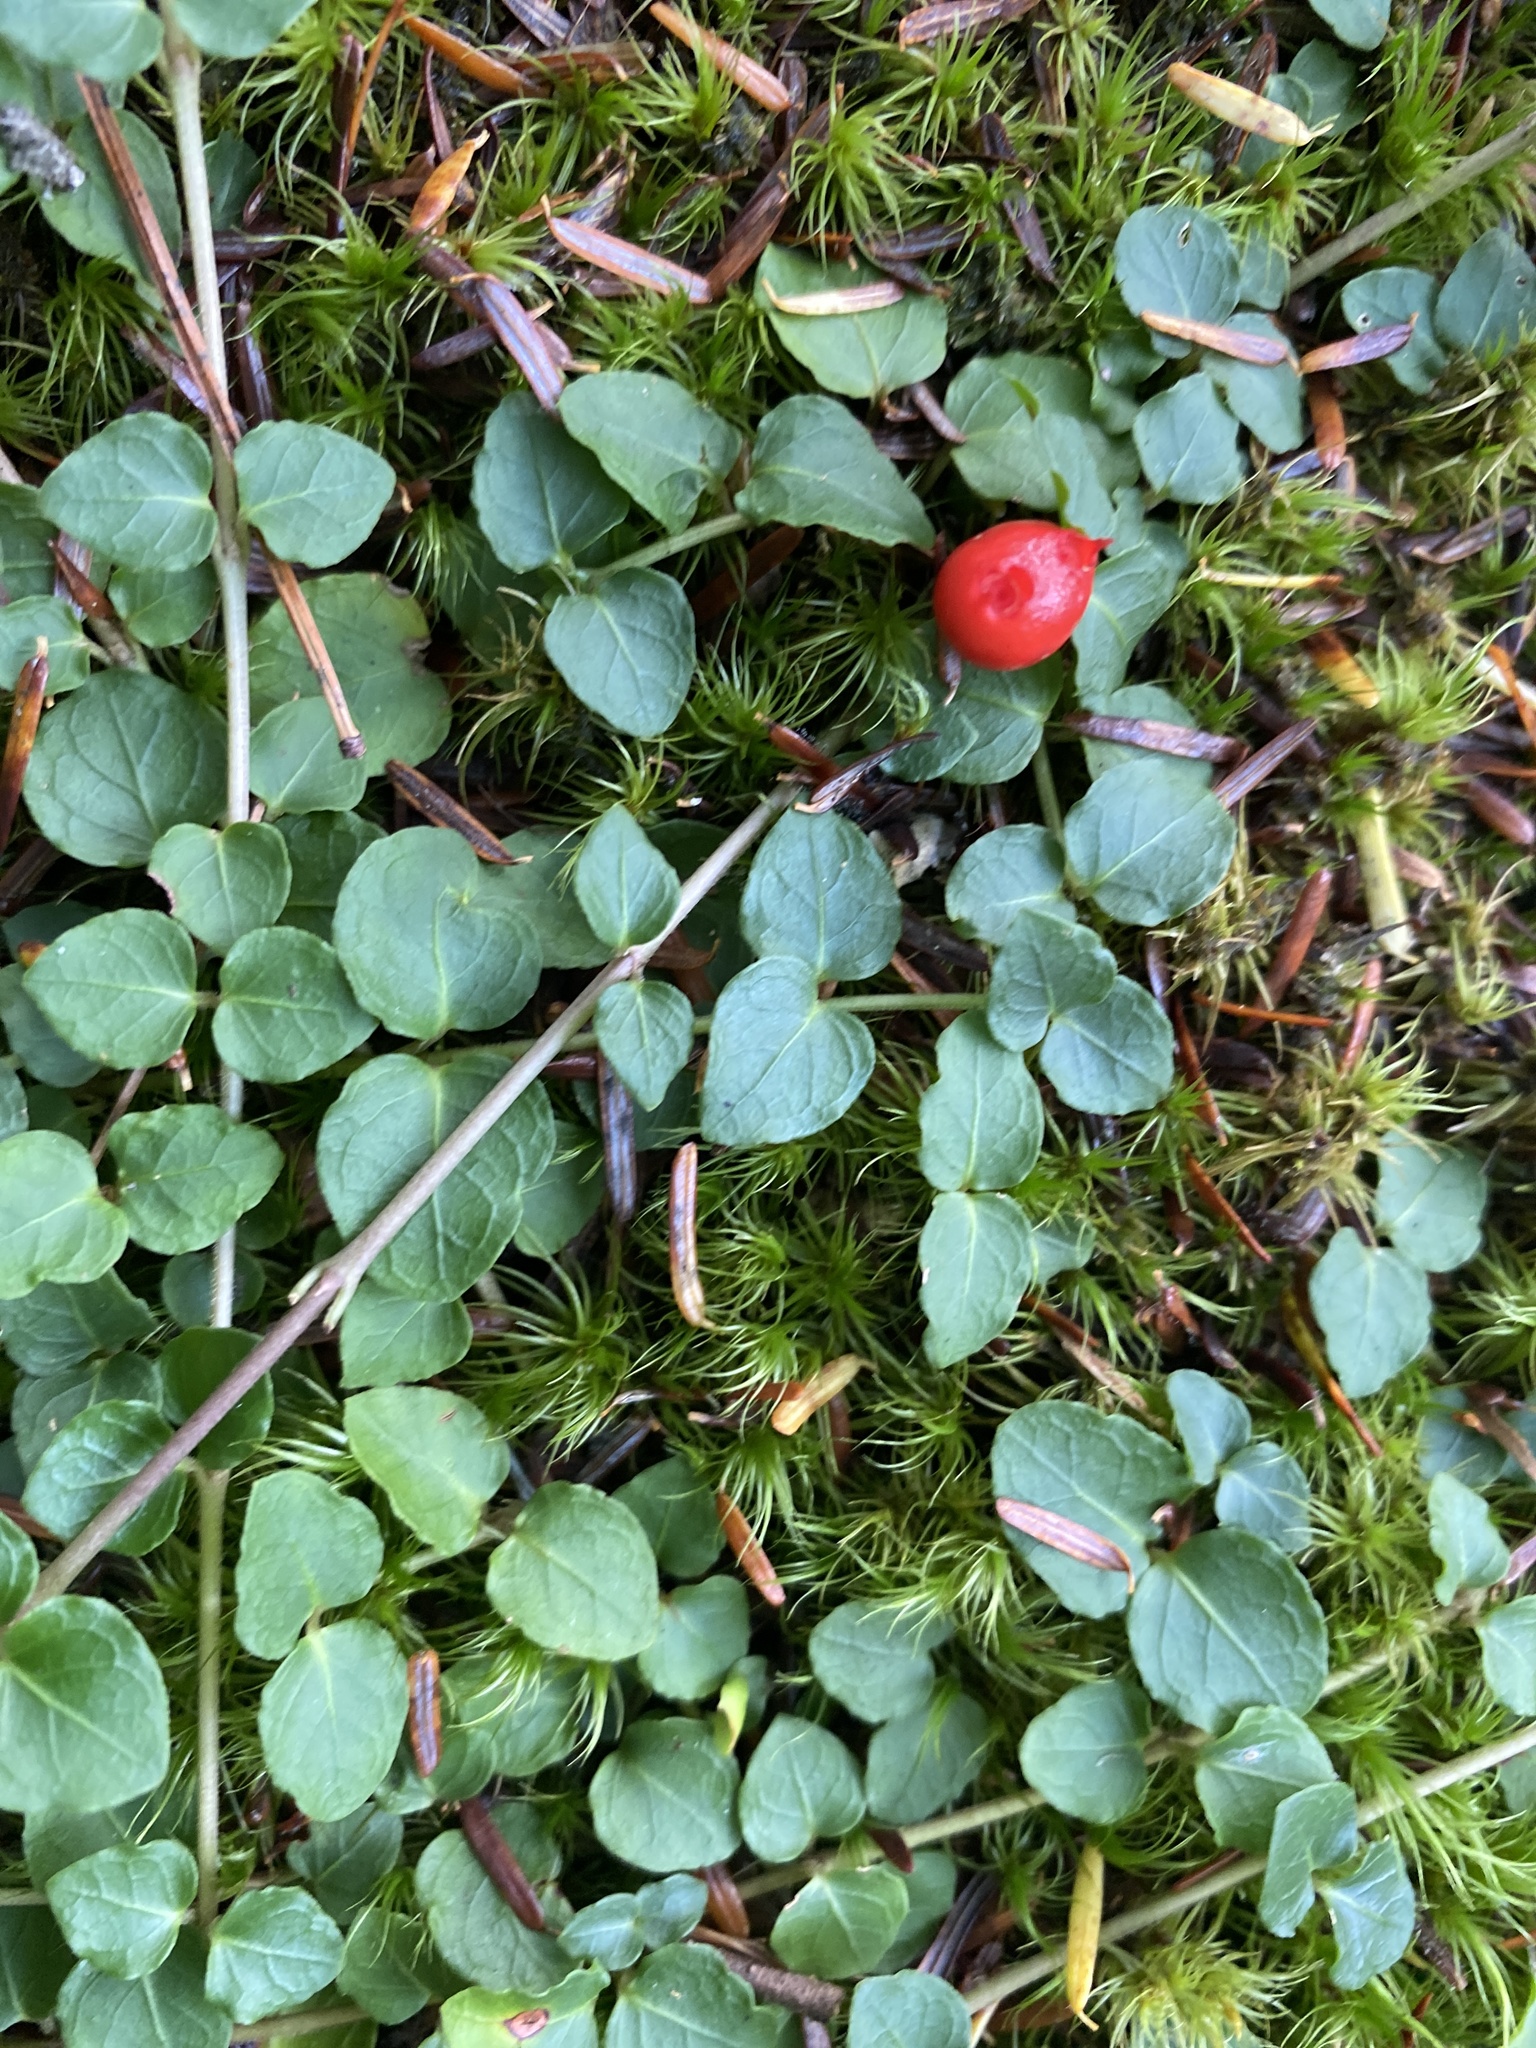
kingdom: Plantae
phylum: Tracheophyta
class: Magnoliopsida
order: Gentianales
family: Rubiaceae
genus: Mitchella
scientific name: Mitchella repens
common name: Partridge-berry
